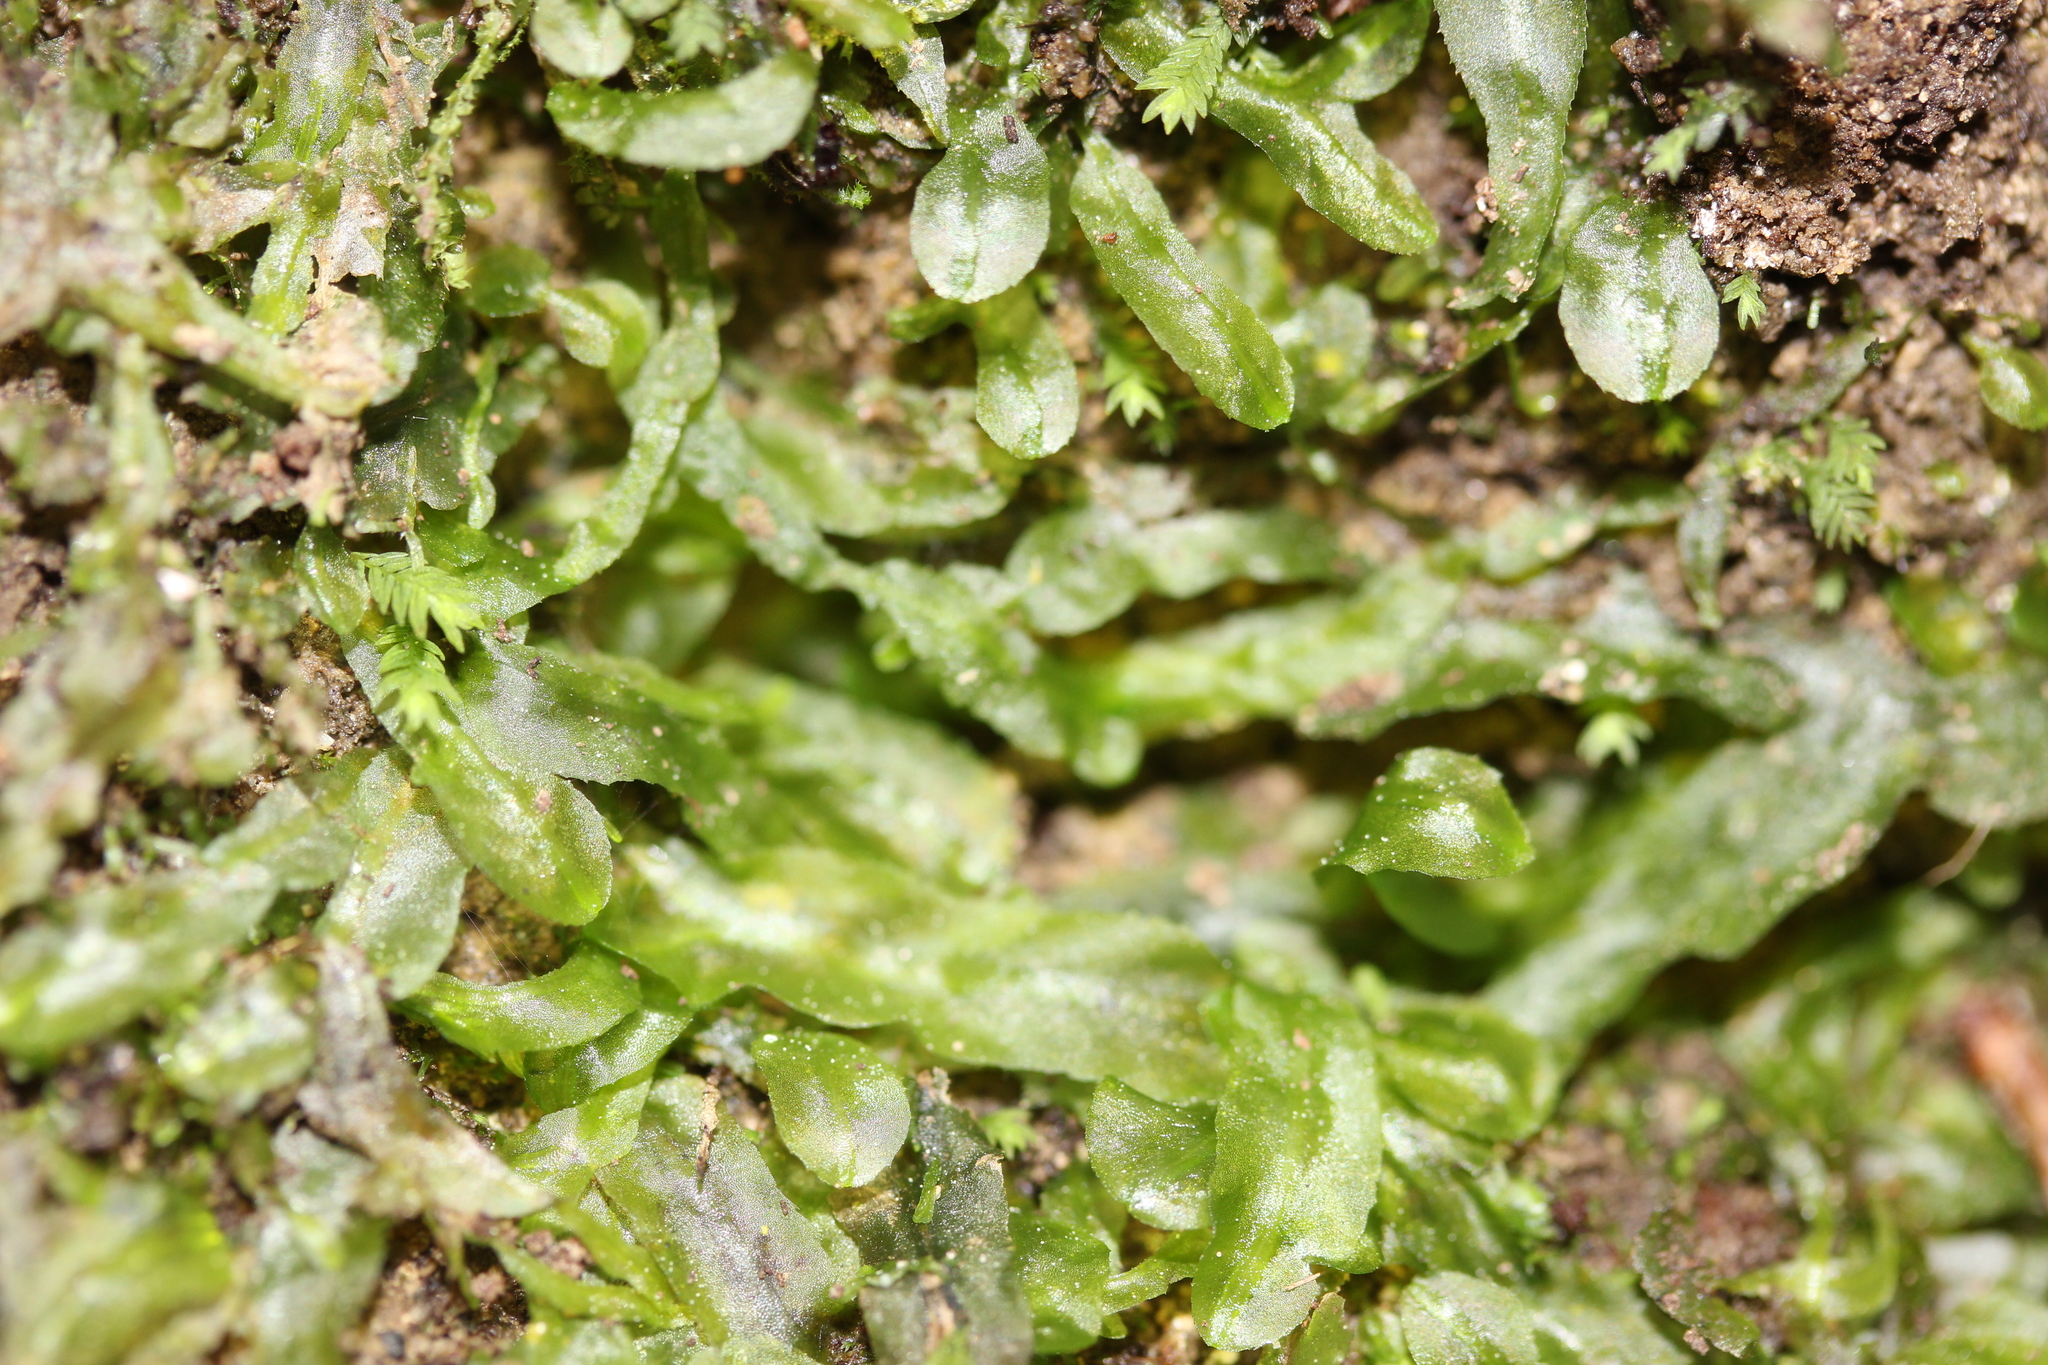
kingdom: Plantae
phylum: Marchantiophyta
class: Jungermanniopsida
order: Pallaviciniales
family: Pallaviciniaceae
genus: Symphyogyna
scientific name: Symphyogyna subsimplex
